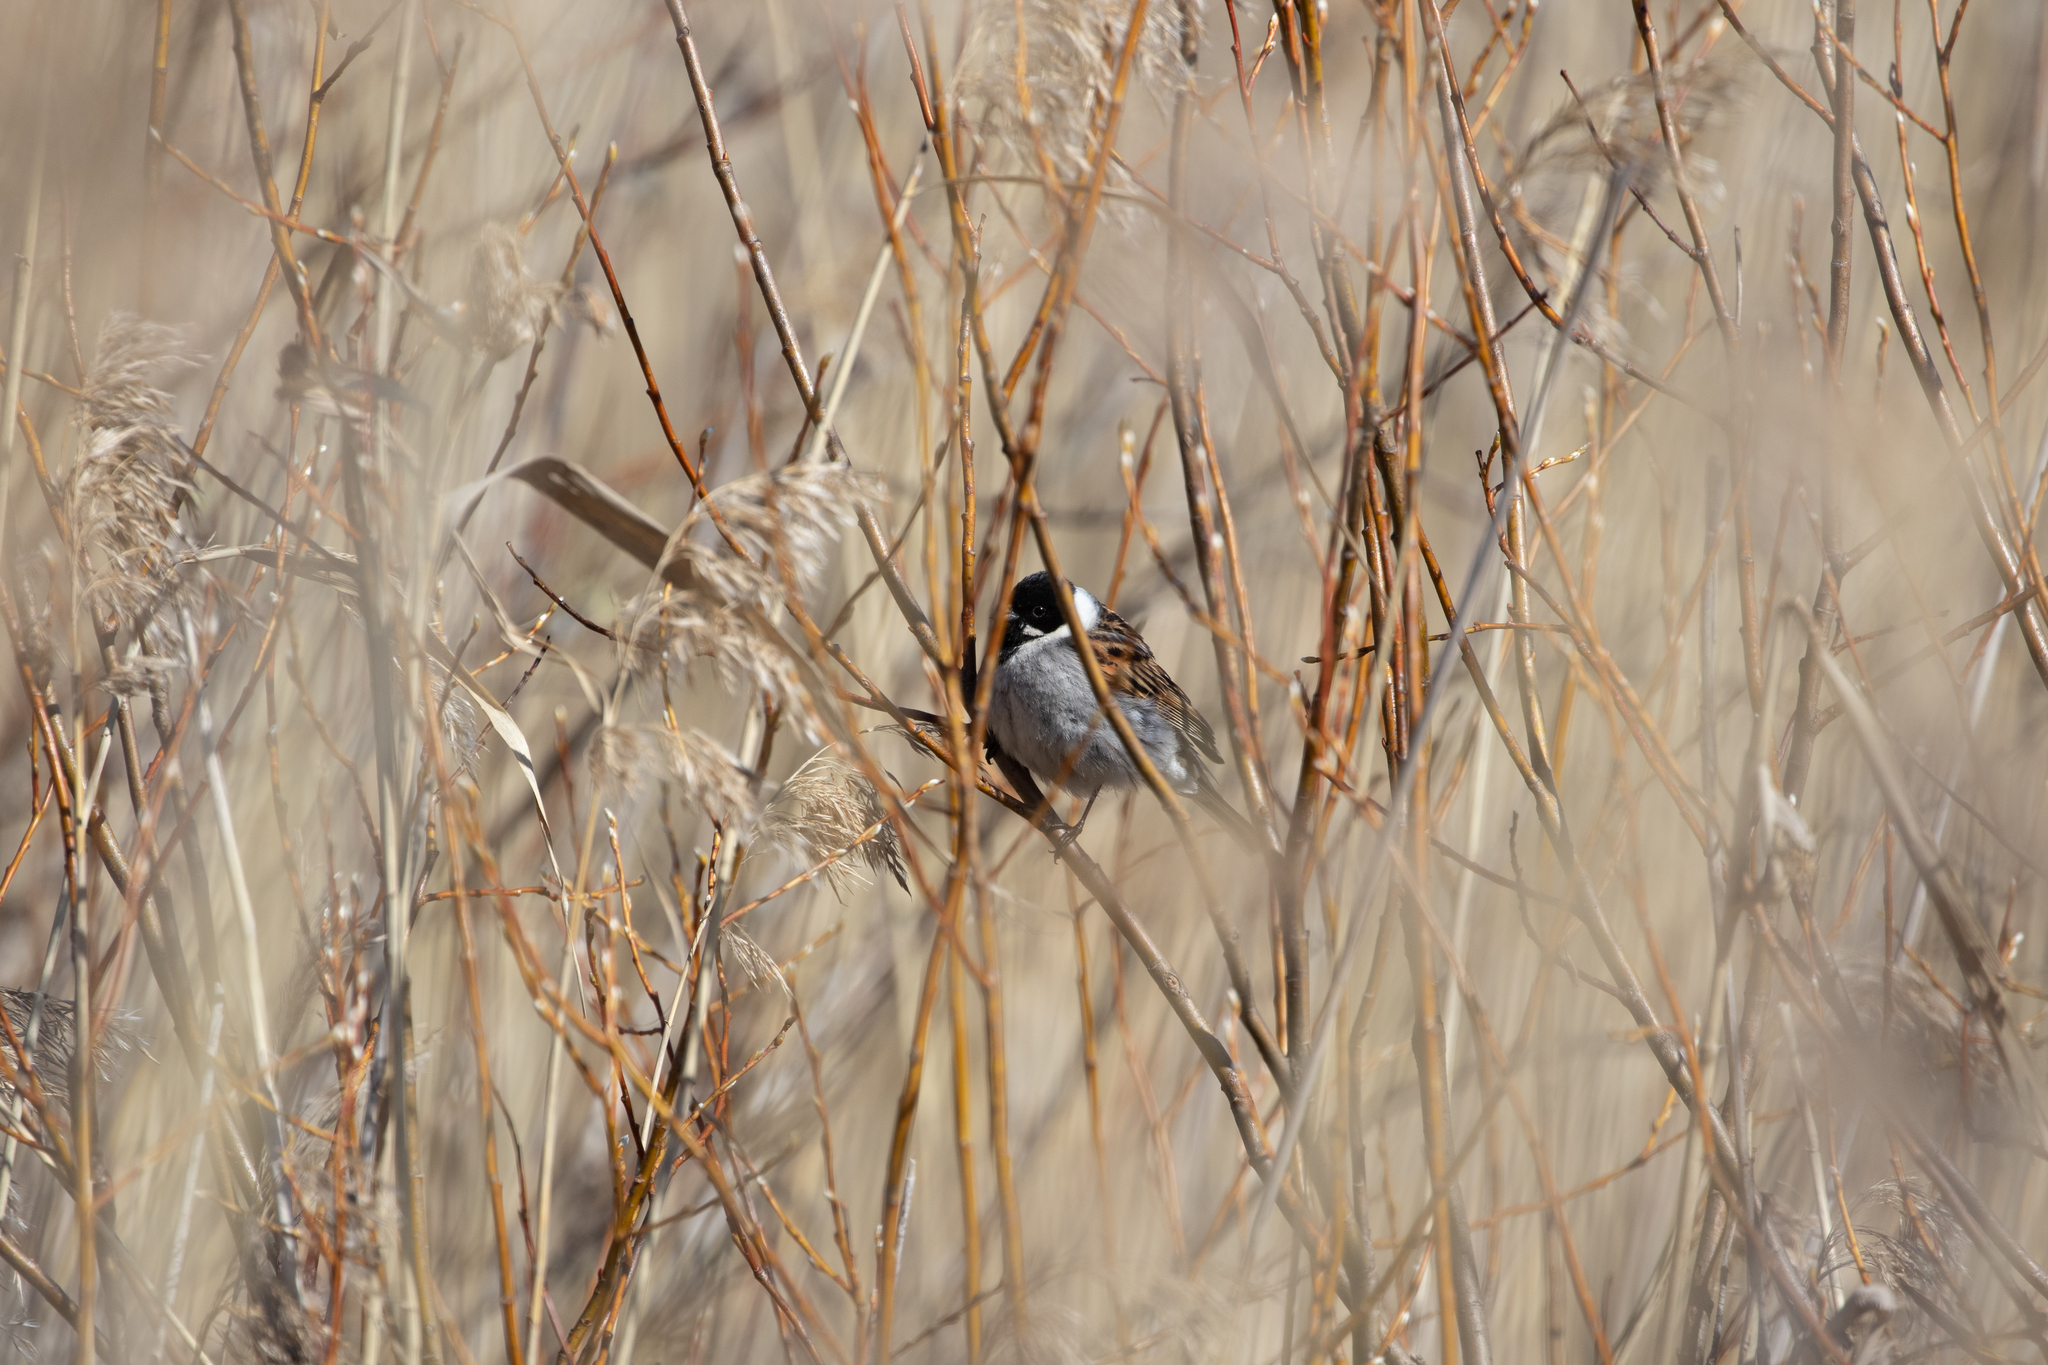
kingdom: Animalia
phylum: Chordata
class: Aves
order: Passeriformes
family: Emberizidae
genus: Emberiza
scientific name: Emberiza schoeniclus
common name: Reed bunting
